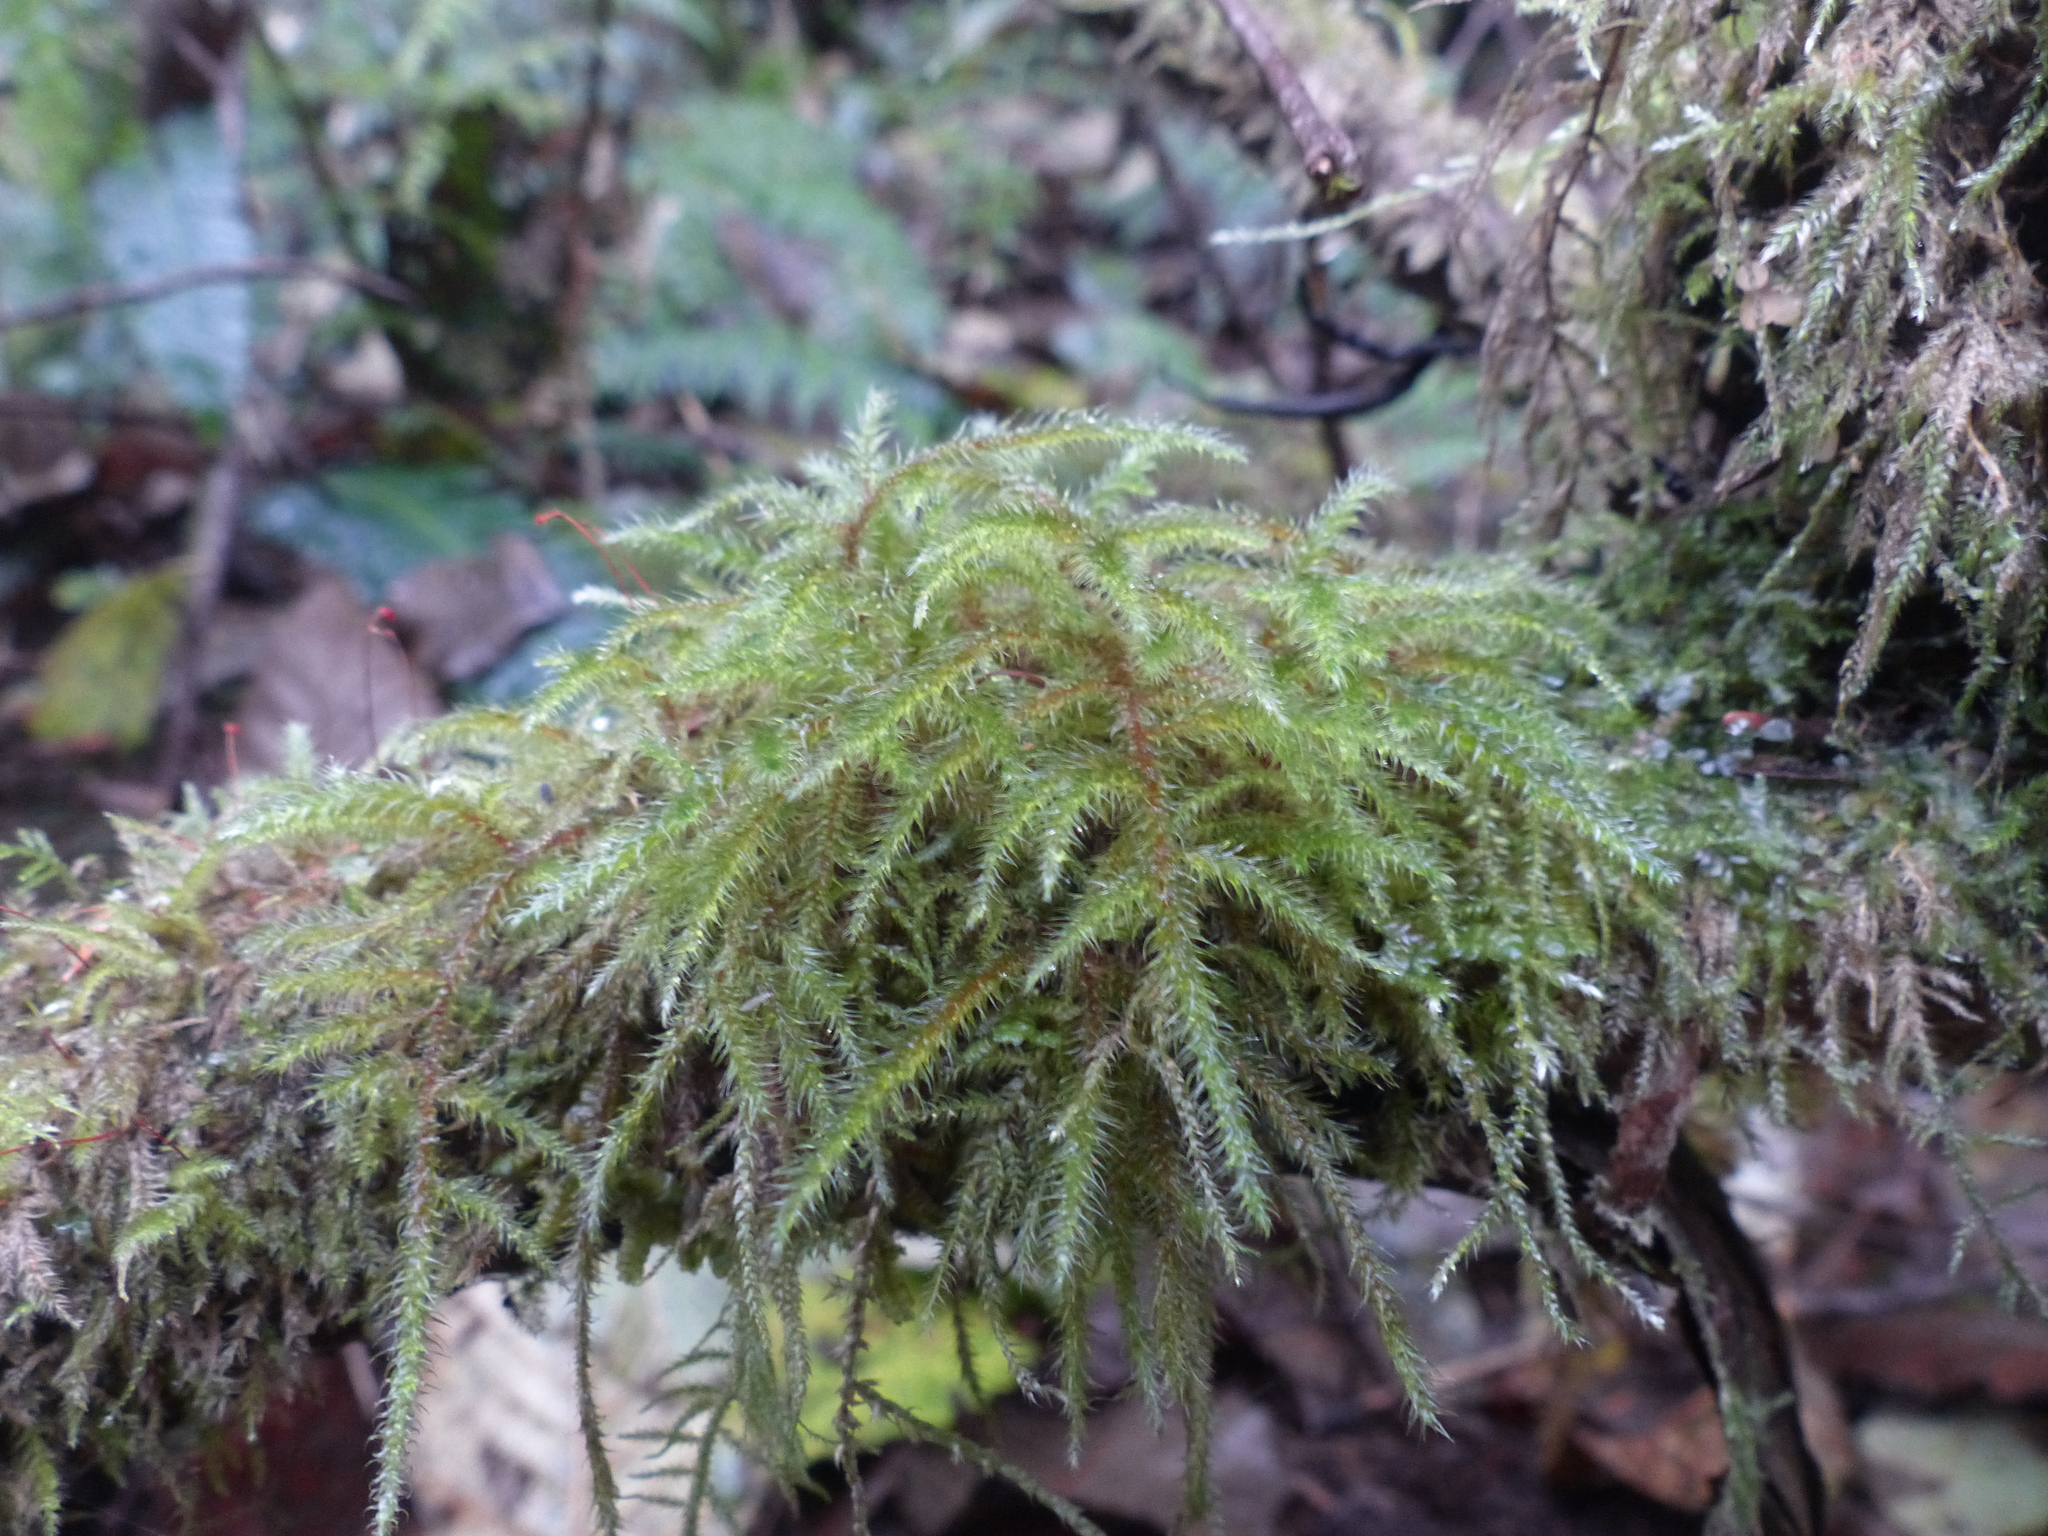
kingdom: Plantae
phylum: Bryophyta
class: Bryopsida
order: Hypnales
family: Hylocomiaceae
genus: Rhytidiadelphus
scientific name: Rhytidiadelphus loreus
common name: Lanky moss
